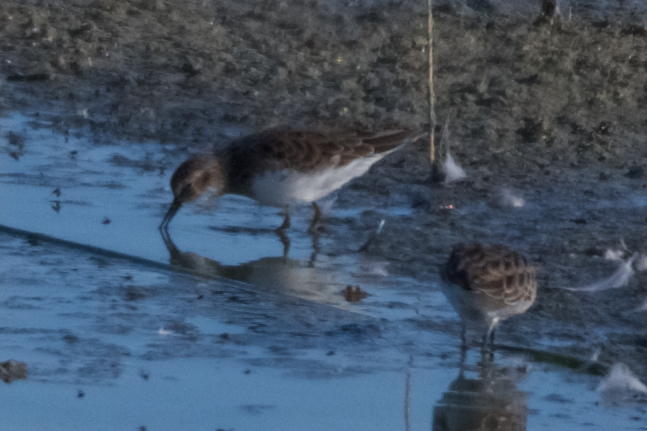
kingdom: Animalia
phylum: Chordata
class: Aves
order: Charadriiformes
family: Scolopacidae
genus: Calidris
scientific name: Calidris minutilla
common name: Least sandpiper
